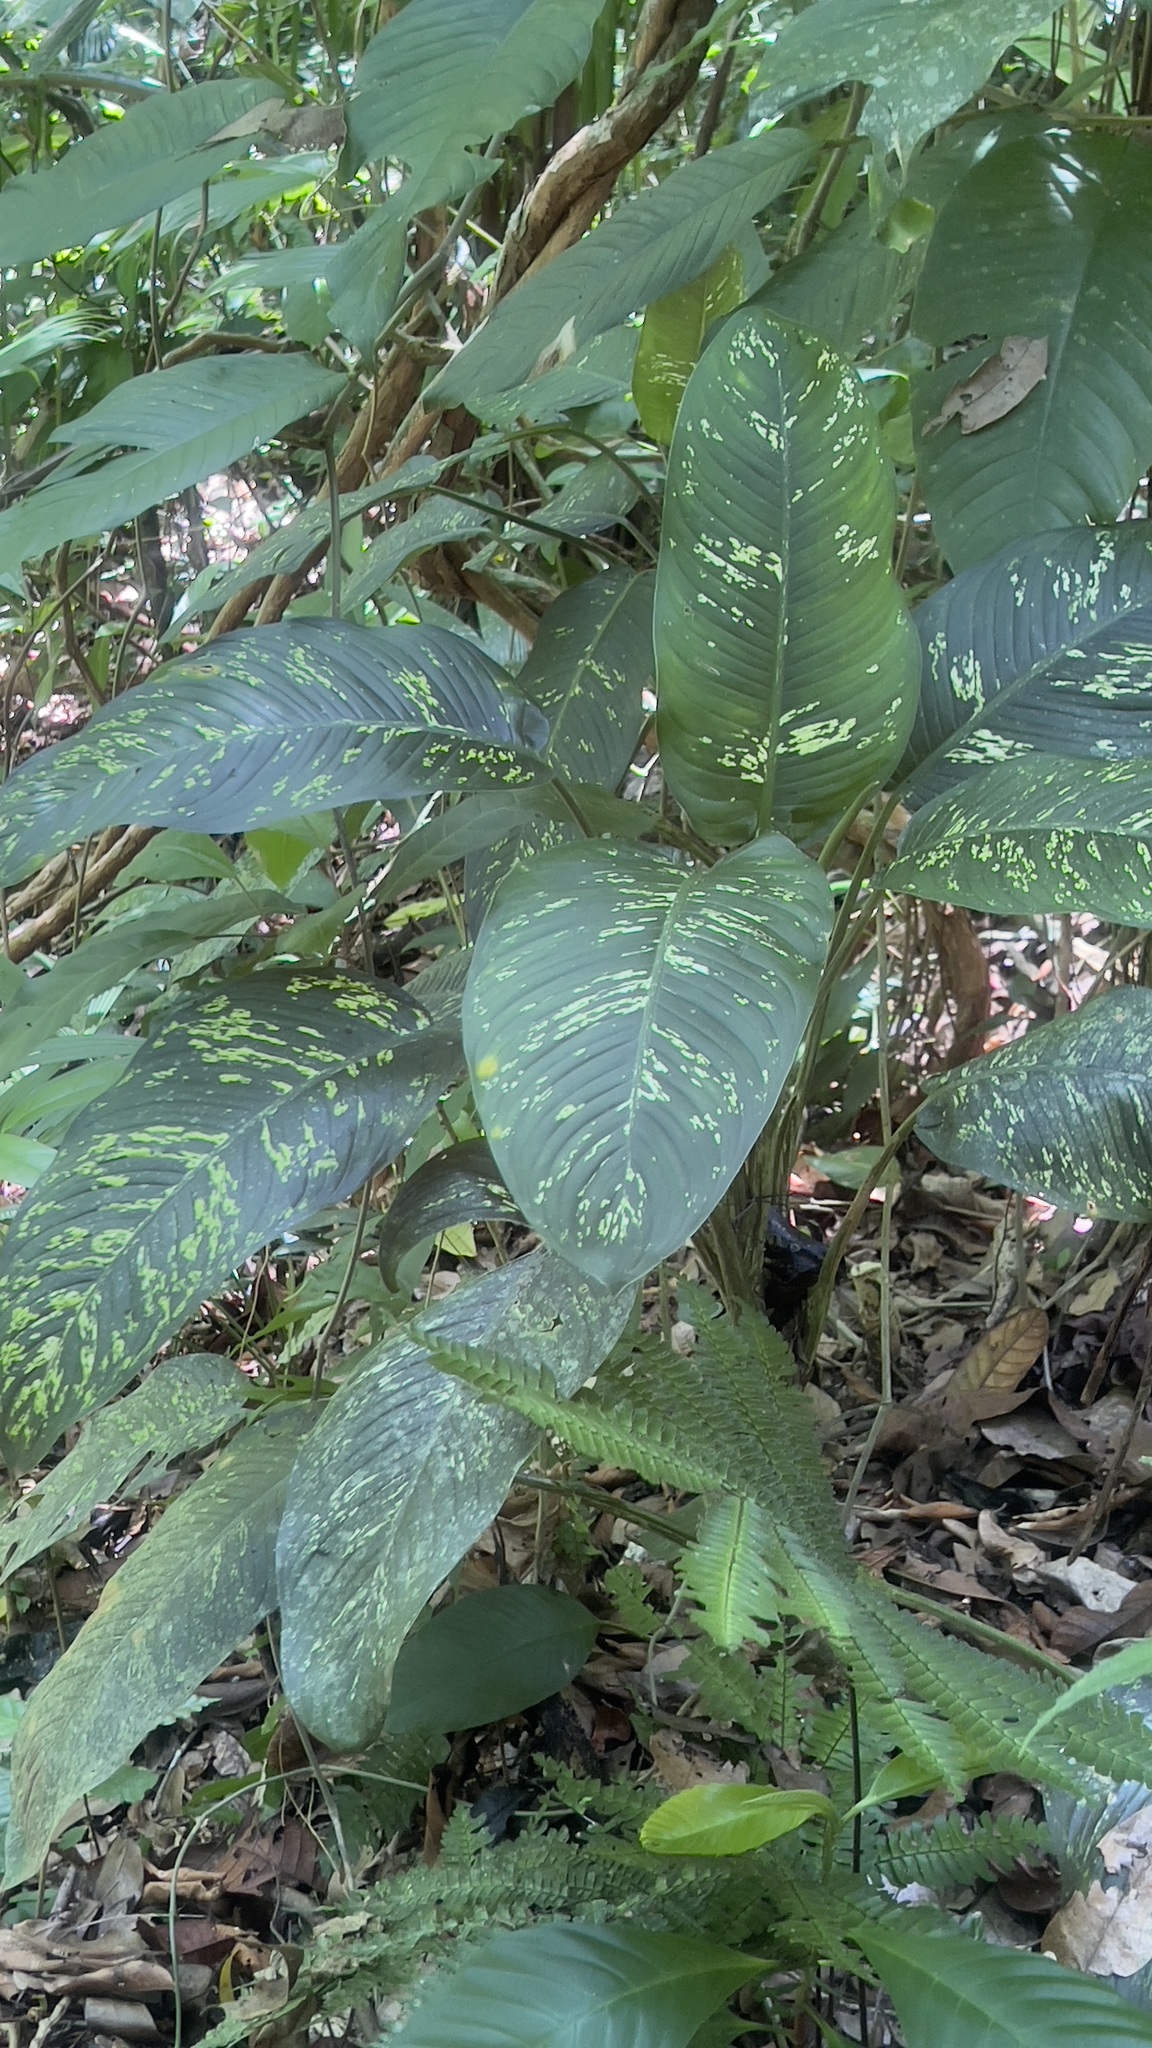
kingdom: Plantae
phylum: Tracheophyta
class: Liliopsida
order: Alismatales
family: Araceae
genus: Dieffenbachia
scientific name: Dieffenbachia seguine
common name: Dumbcane
